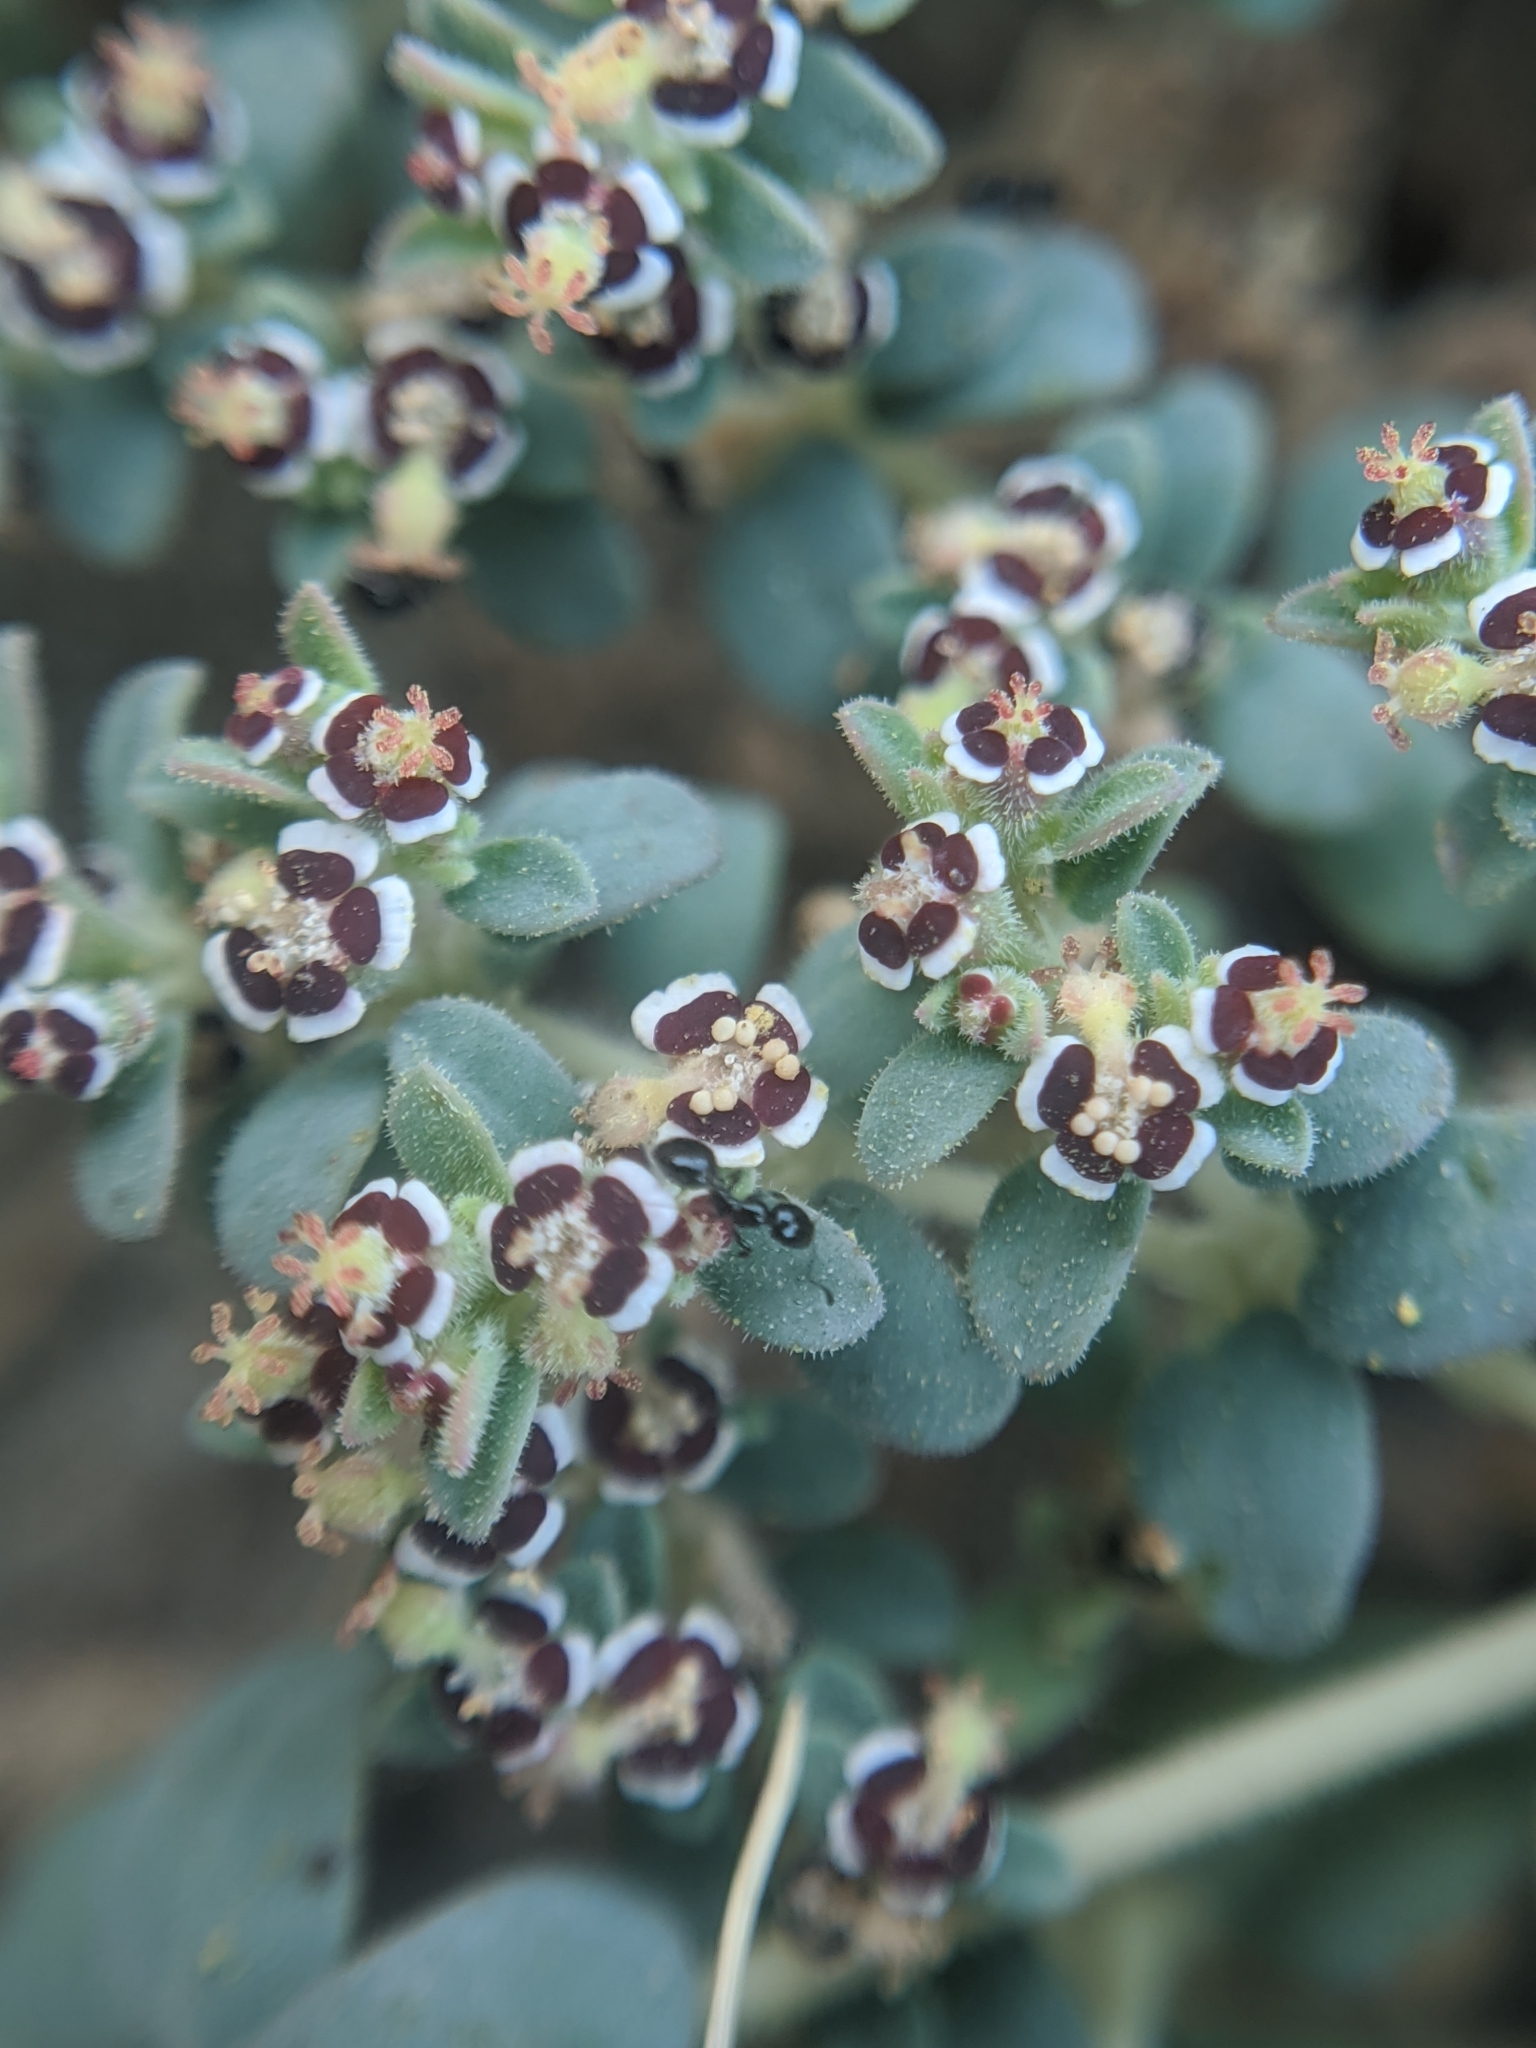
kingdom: Plantae
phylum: Tracheophyta
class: Magnoliopsida
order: Malpighiales
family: Euphorbiaceae
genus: Euphorbia
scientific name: Euphorbia polycarpa
